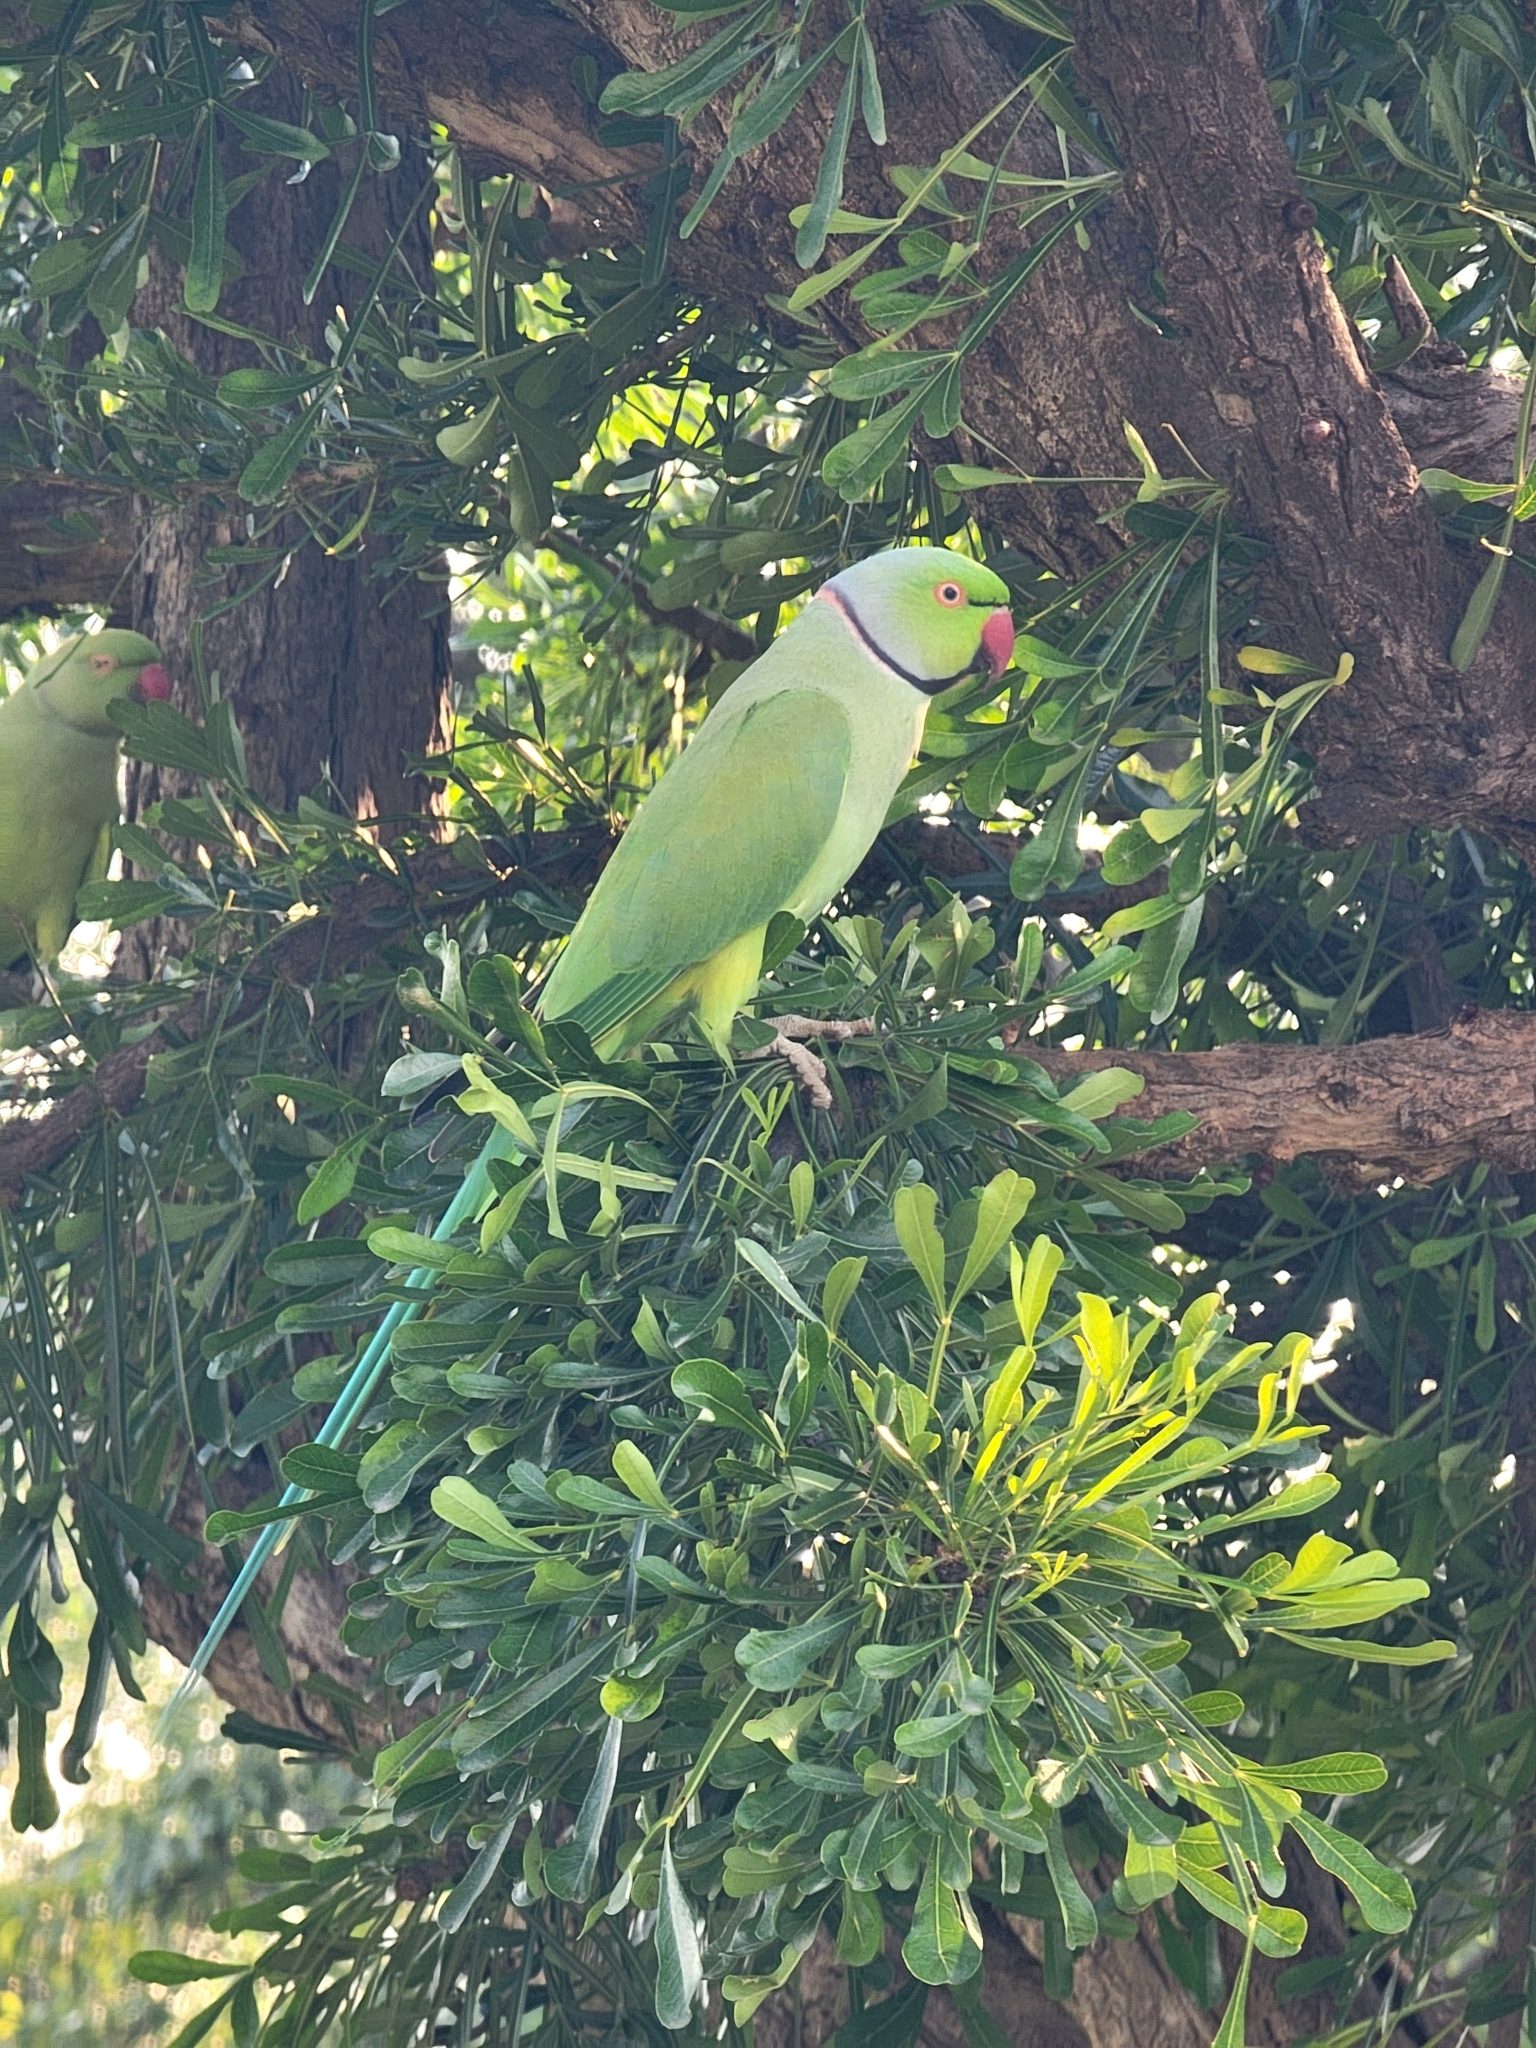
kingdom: Animalia
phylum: Chordata
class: Aves
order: Psittaciformes
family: Psittacidae
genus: Psittacula
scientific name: Psittacula krameri
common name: Rose-ringed parakeet
